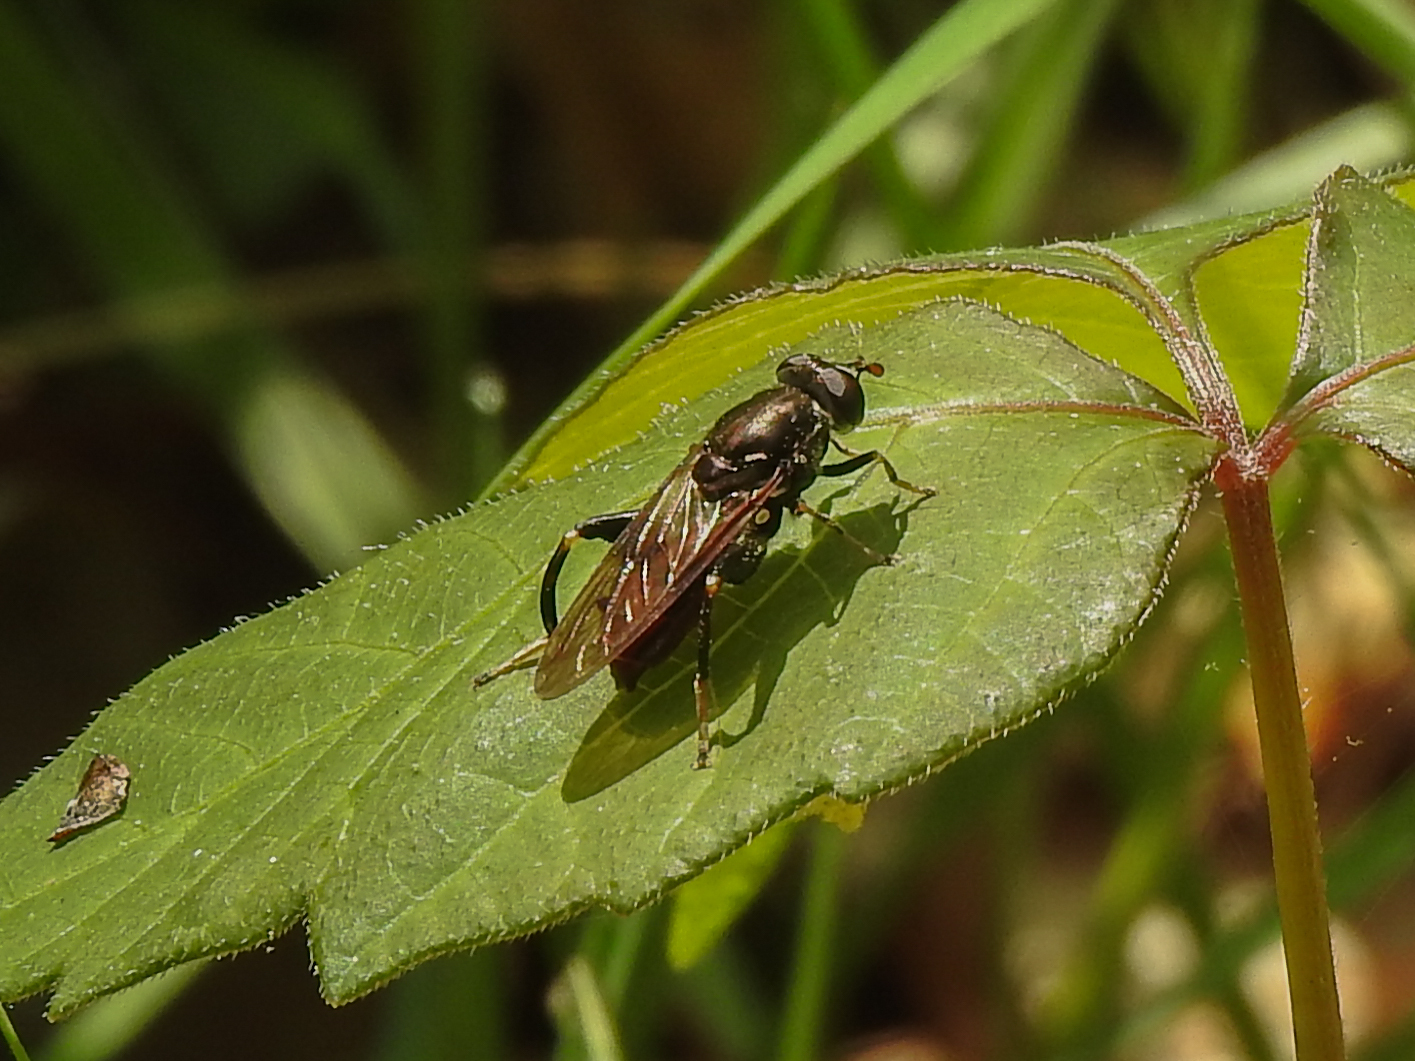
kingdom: Animalia
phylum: Arthropoda
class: Insecta
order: Diptera
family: Syrphidae
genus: Chalcosyrphus
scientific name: Chalcosyrphus libo
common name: Long-haired forest fly
